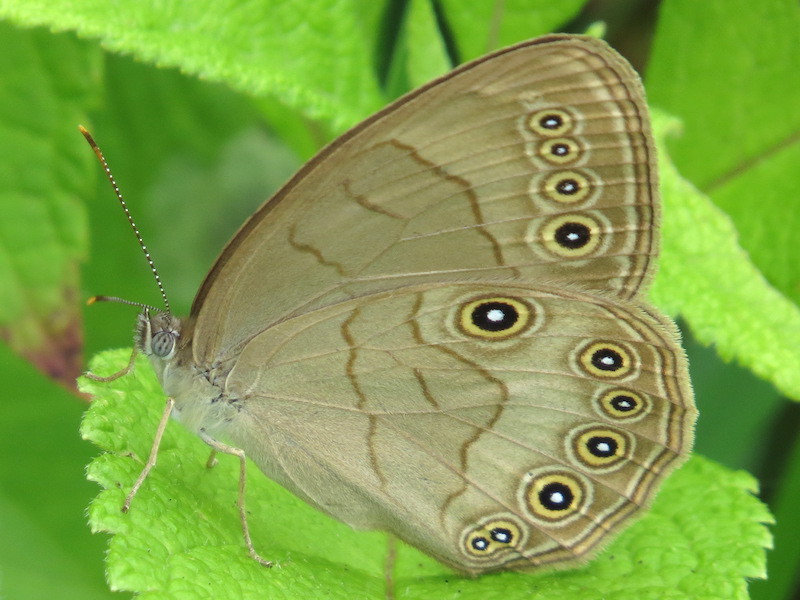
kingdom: Animalia
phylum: Arthropoda
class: Insecta
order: Lepidoptera
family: Nymphalidae
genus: Lethe
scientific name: Lethe eurydice
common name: Eyed brown
